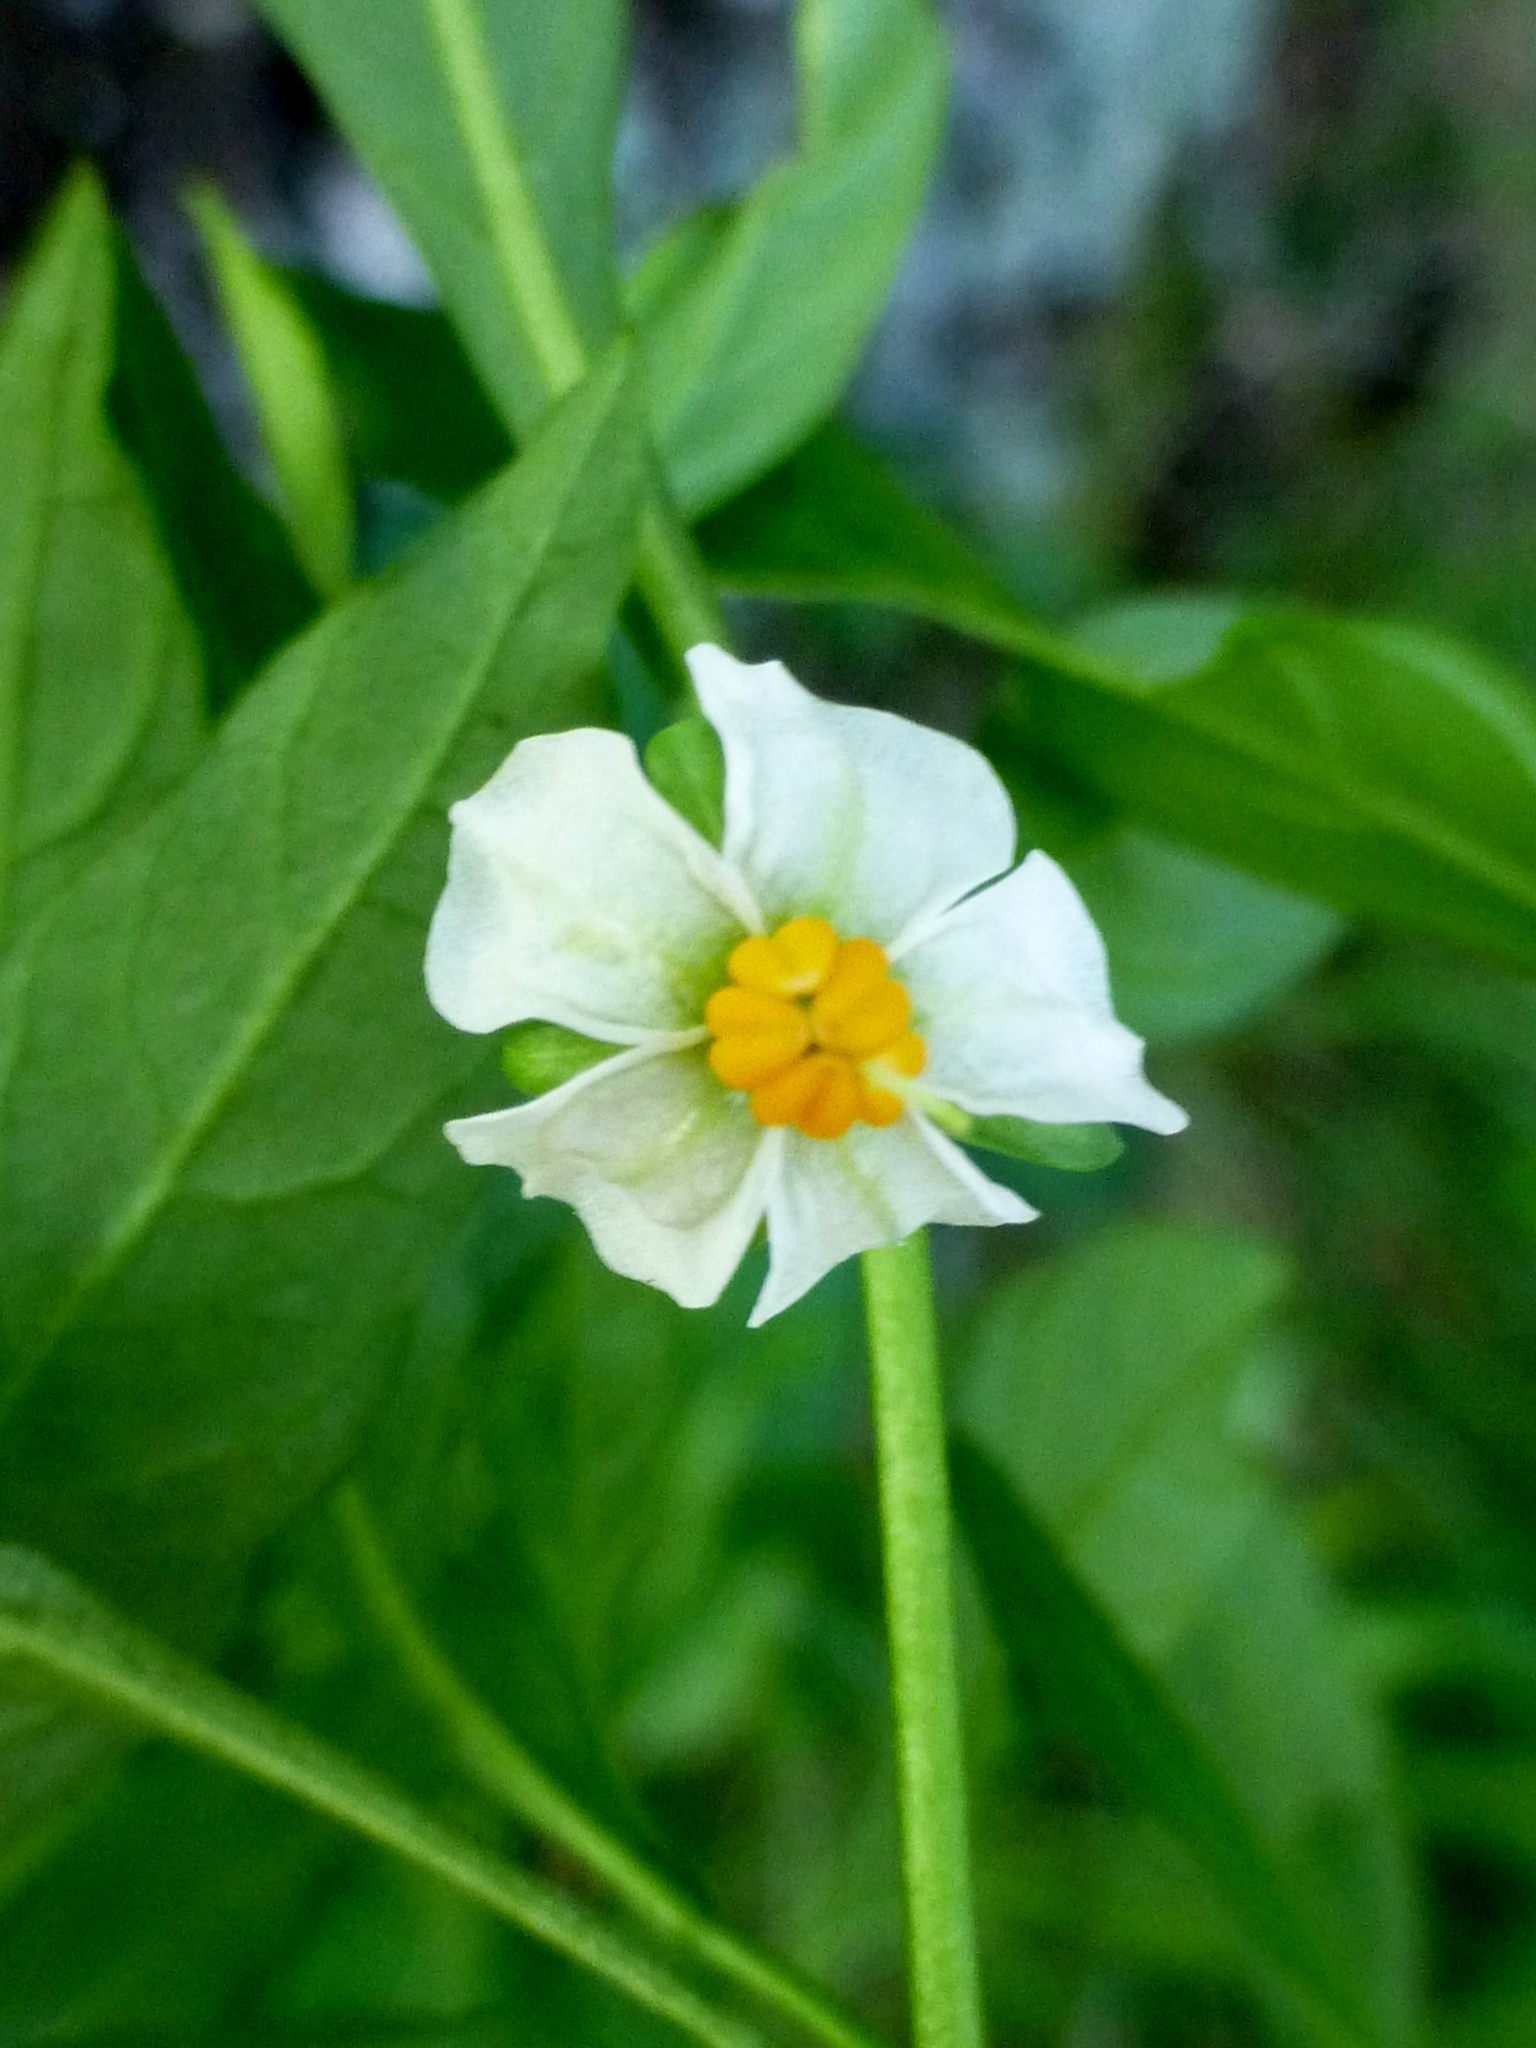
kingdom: Plantae
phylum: Tracheophyta
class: Magnoliopsida
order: Solanales
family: Solanaceae
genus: Solanum
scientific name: Solanum pseudocapsicum
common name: Jerusalem cherry
